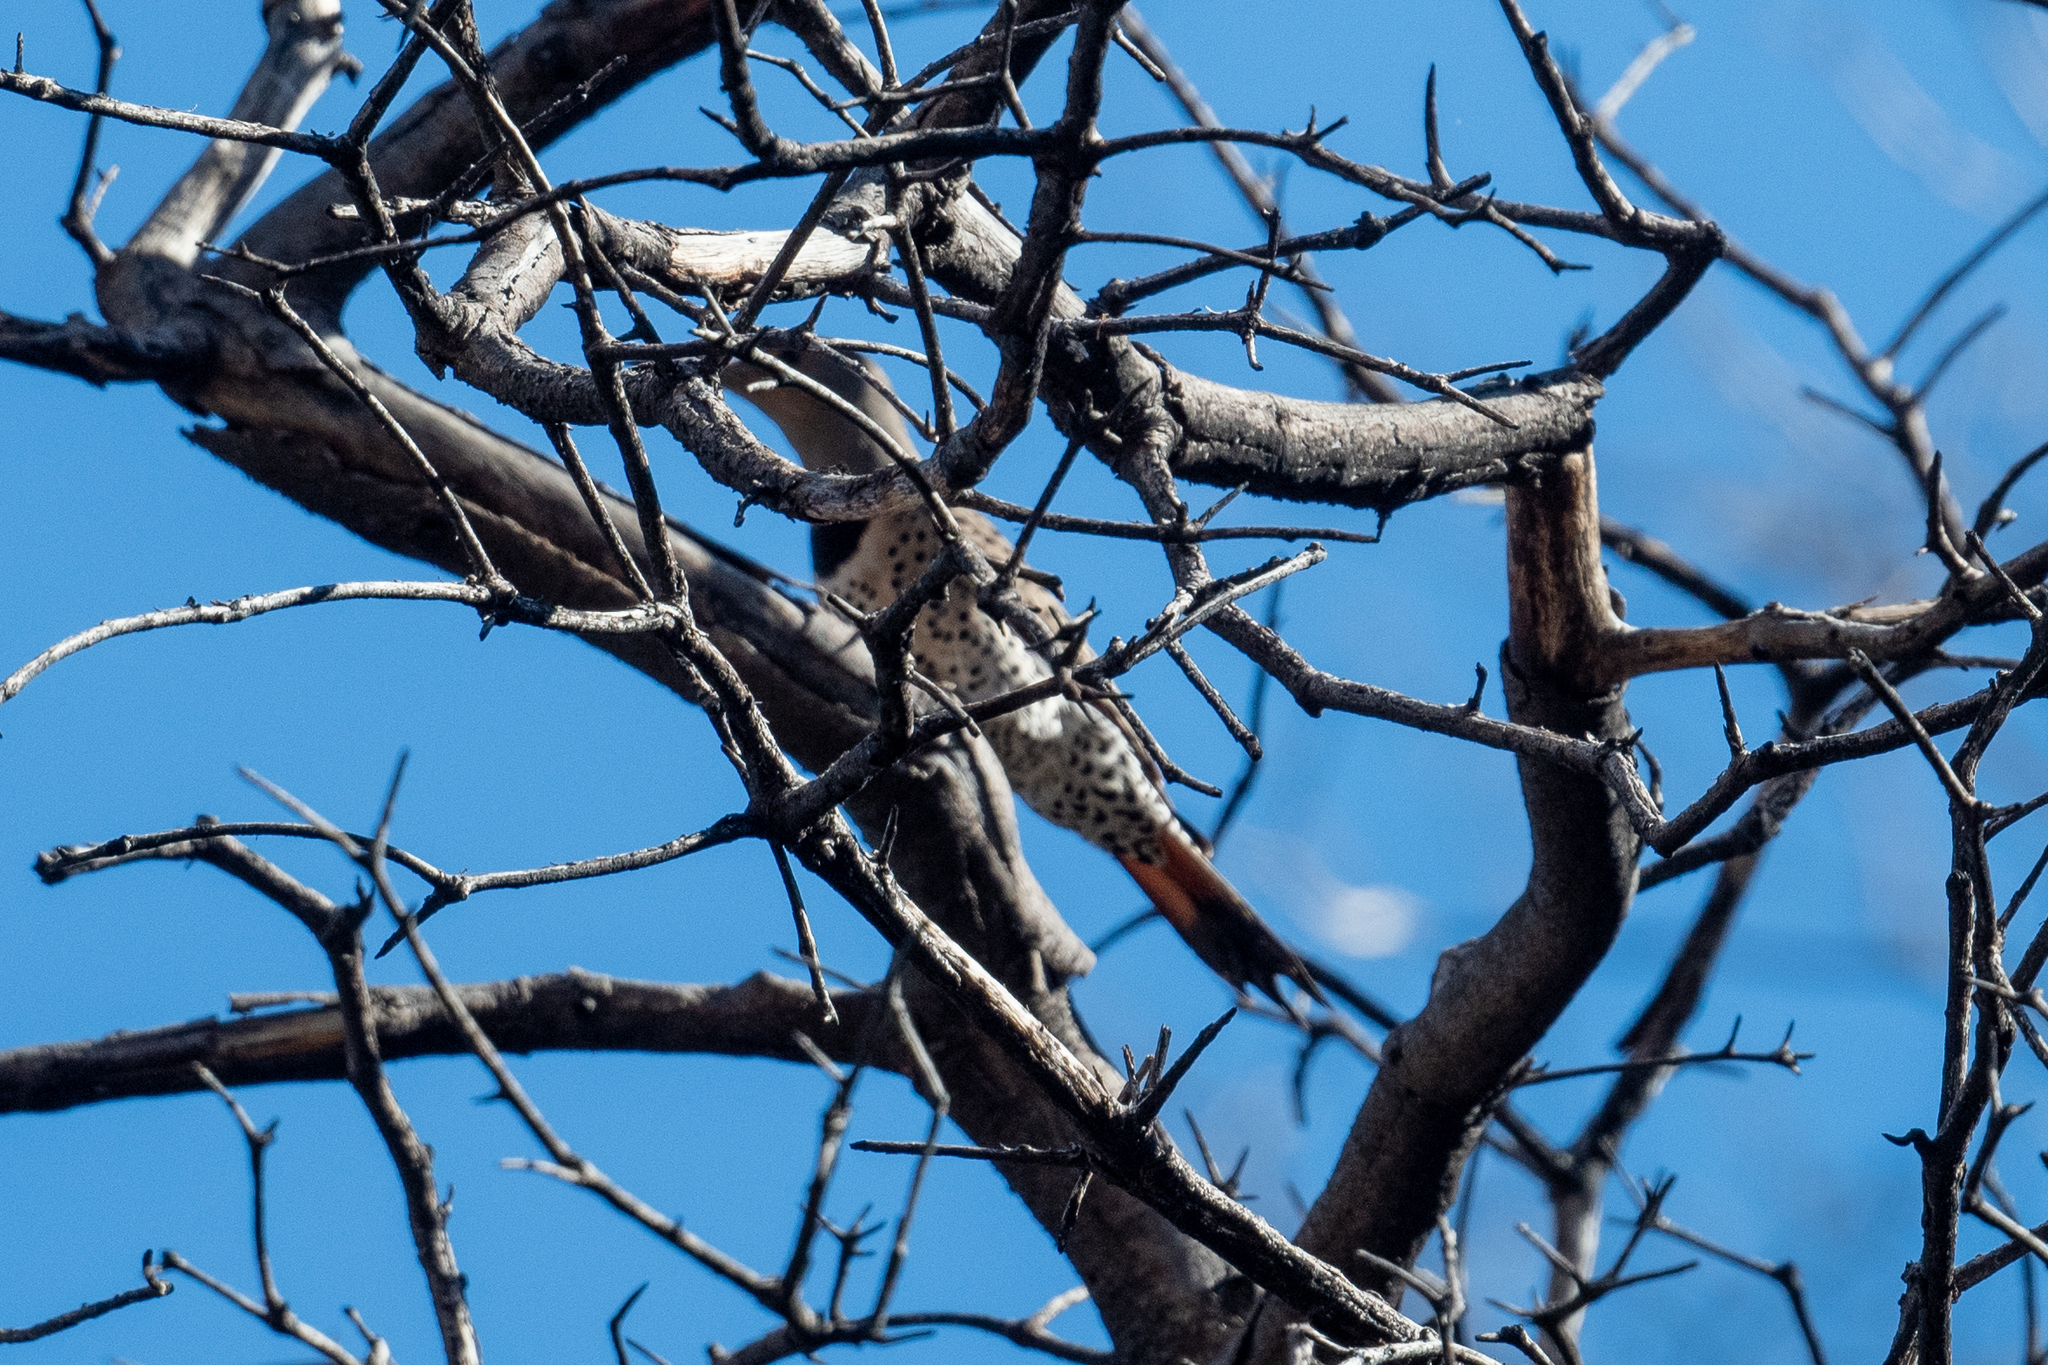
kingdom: Animalia
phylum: Chordata
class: Aves
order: Piciformes
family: Picidae
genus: Colaptes
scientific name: Colaptes auratus
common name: Northern flicker
